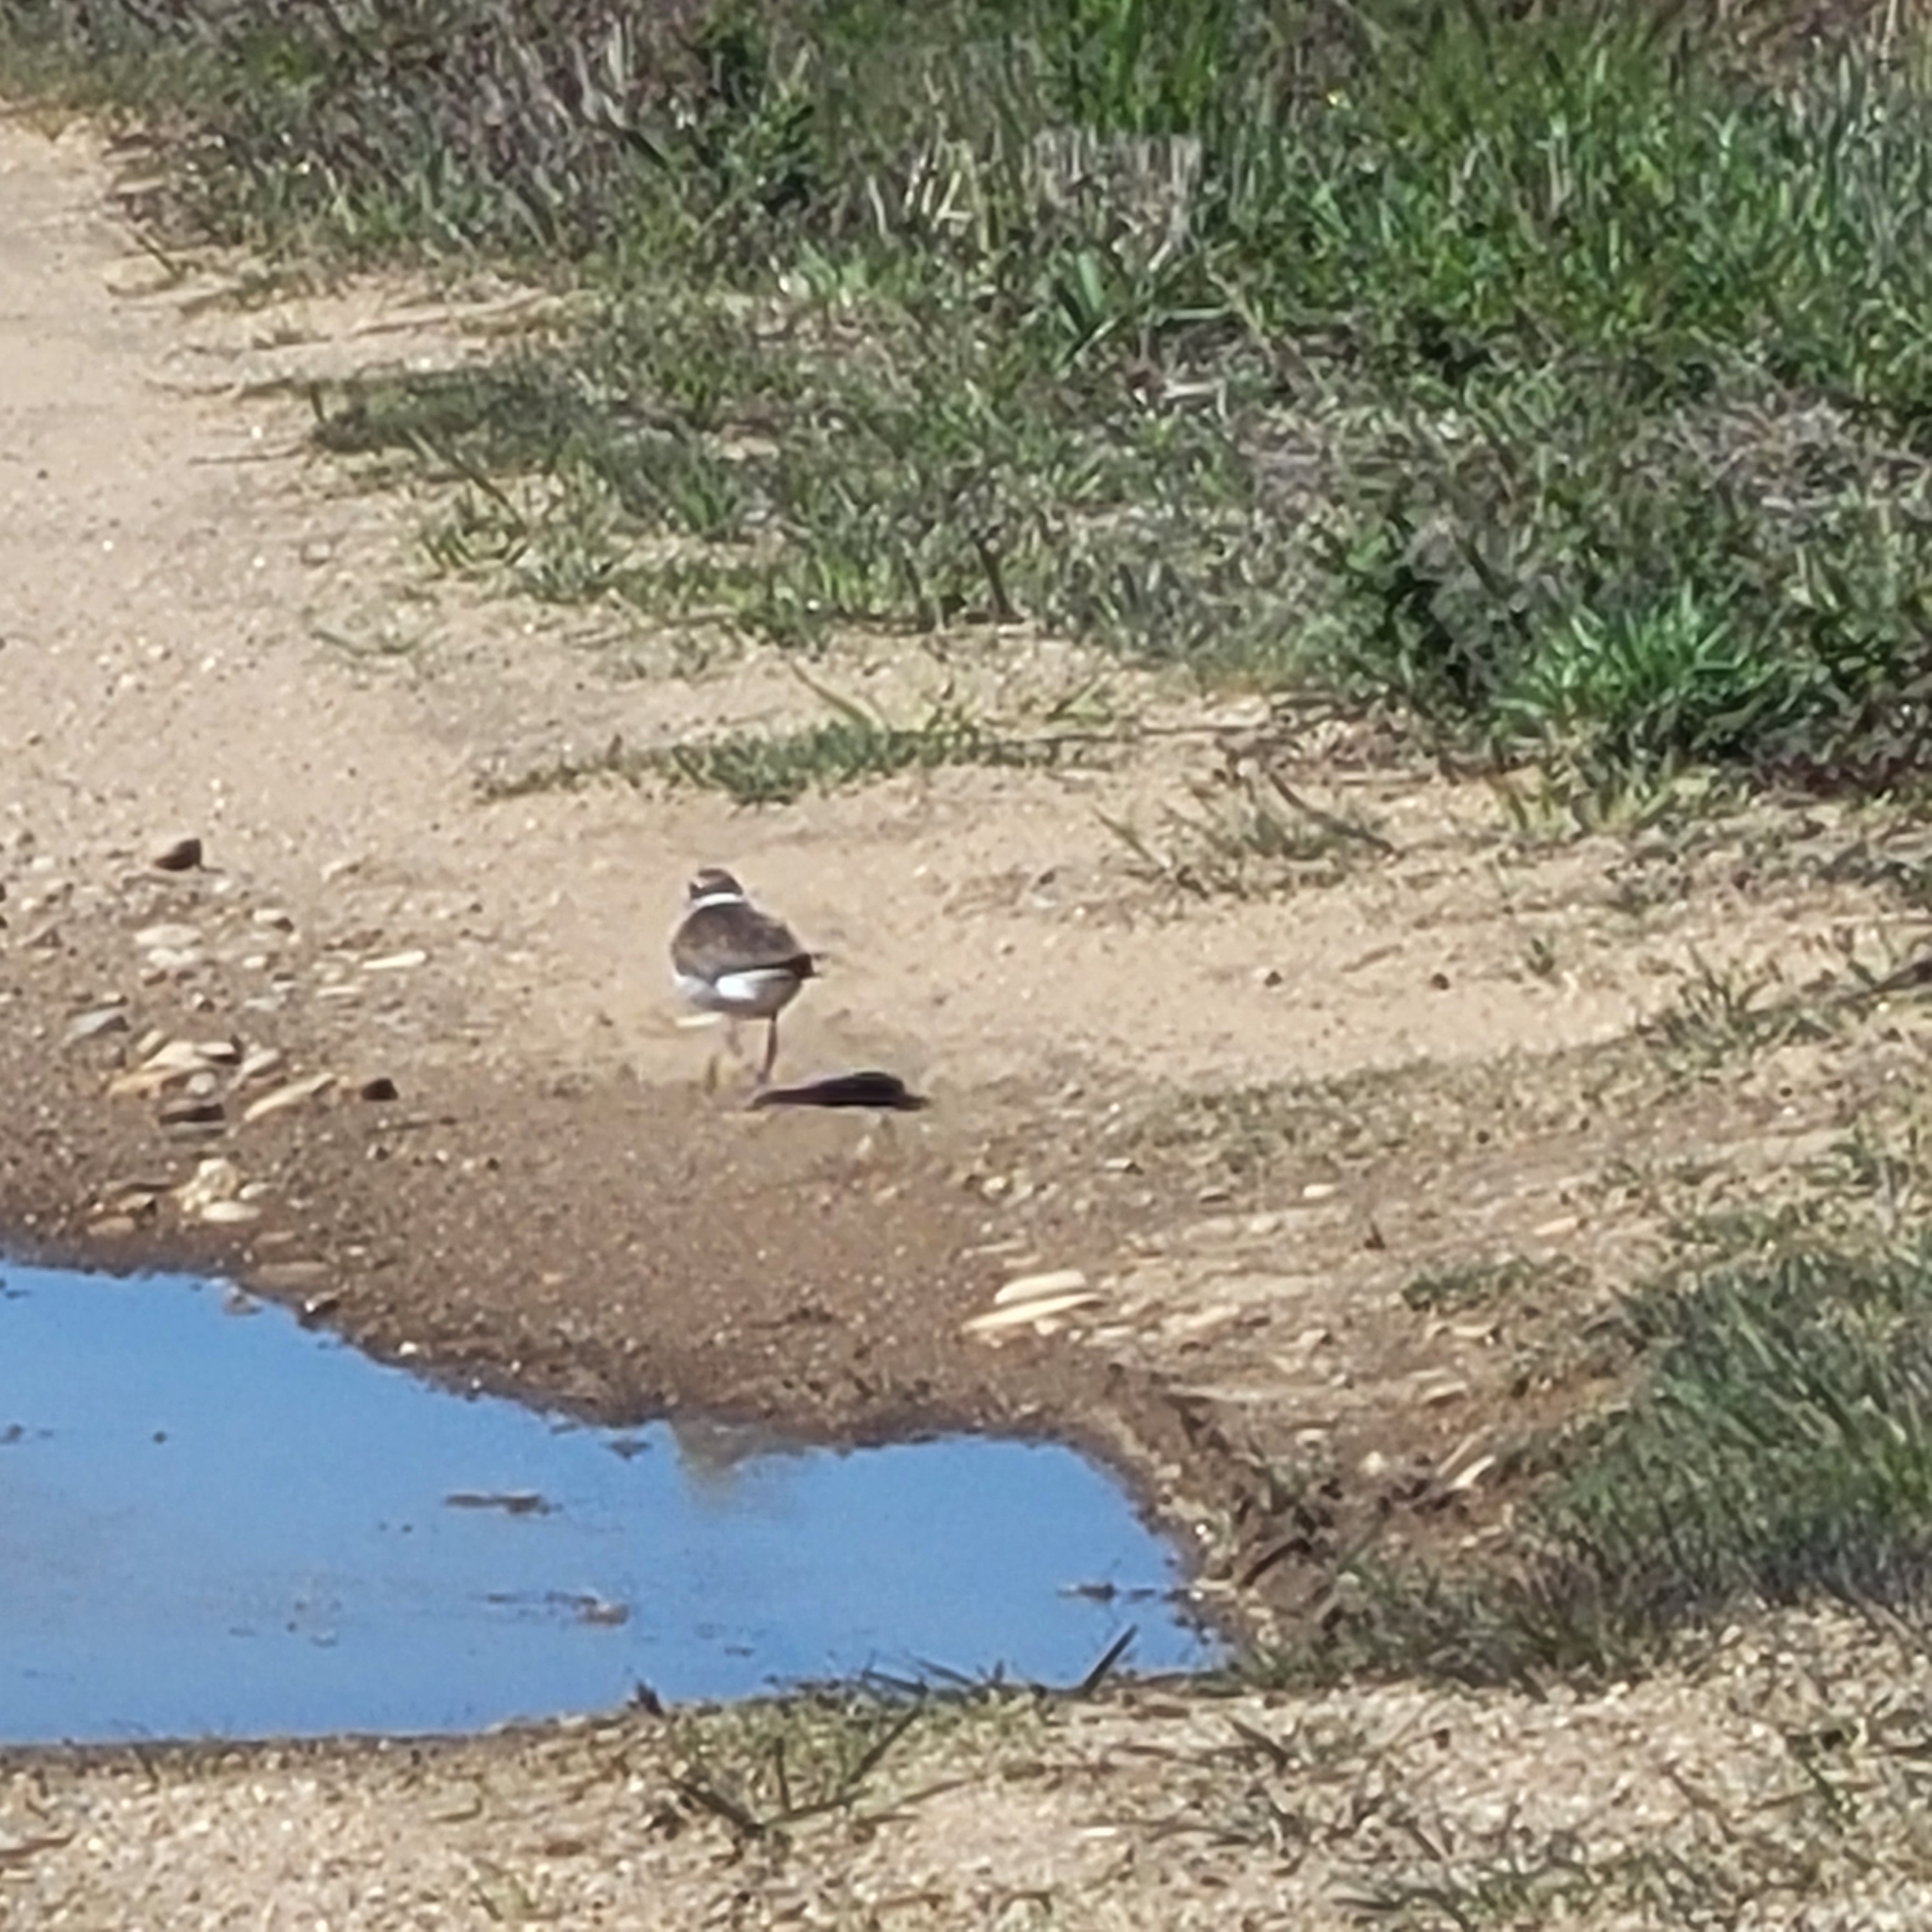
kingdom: Animalia
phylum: Chordata
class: Aves
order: Charadriiformes
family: Charadriidae
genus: Charadrius
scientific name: Charadrius vociferus
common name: Killdeer
